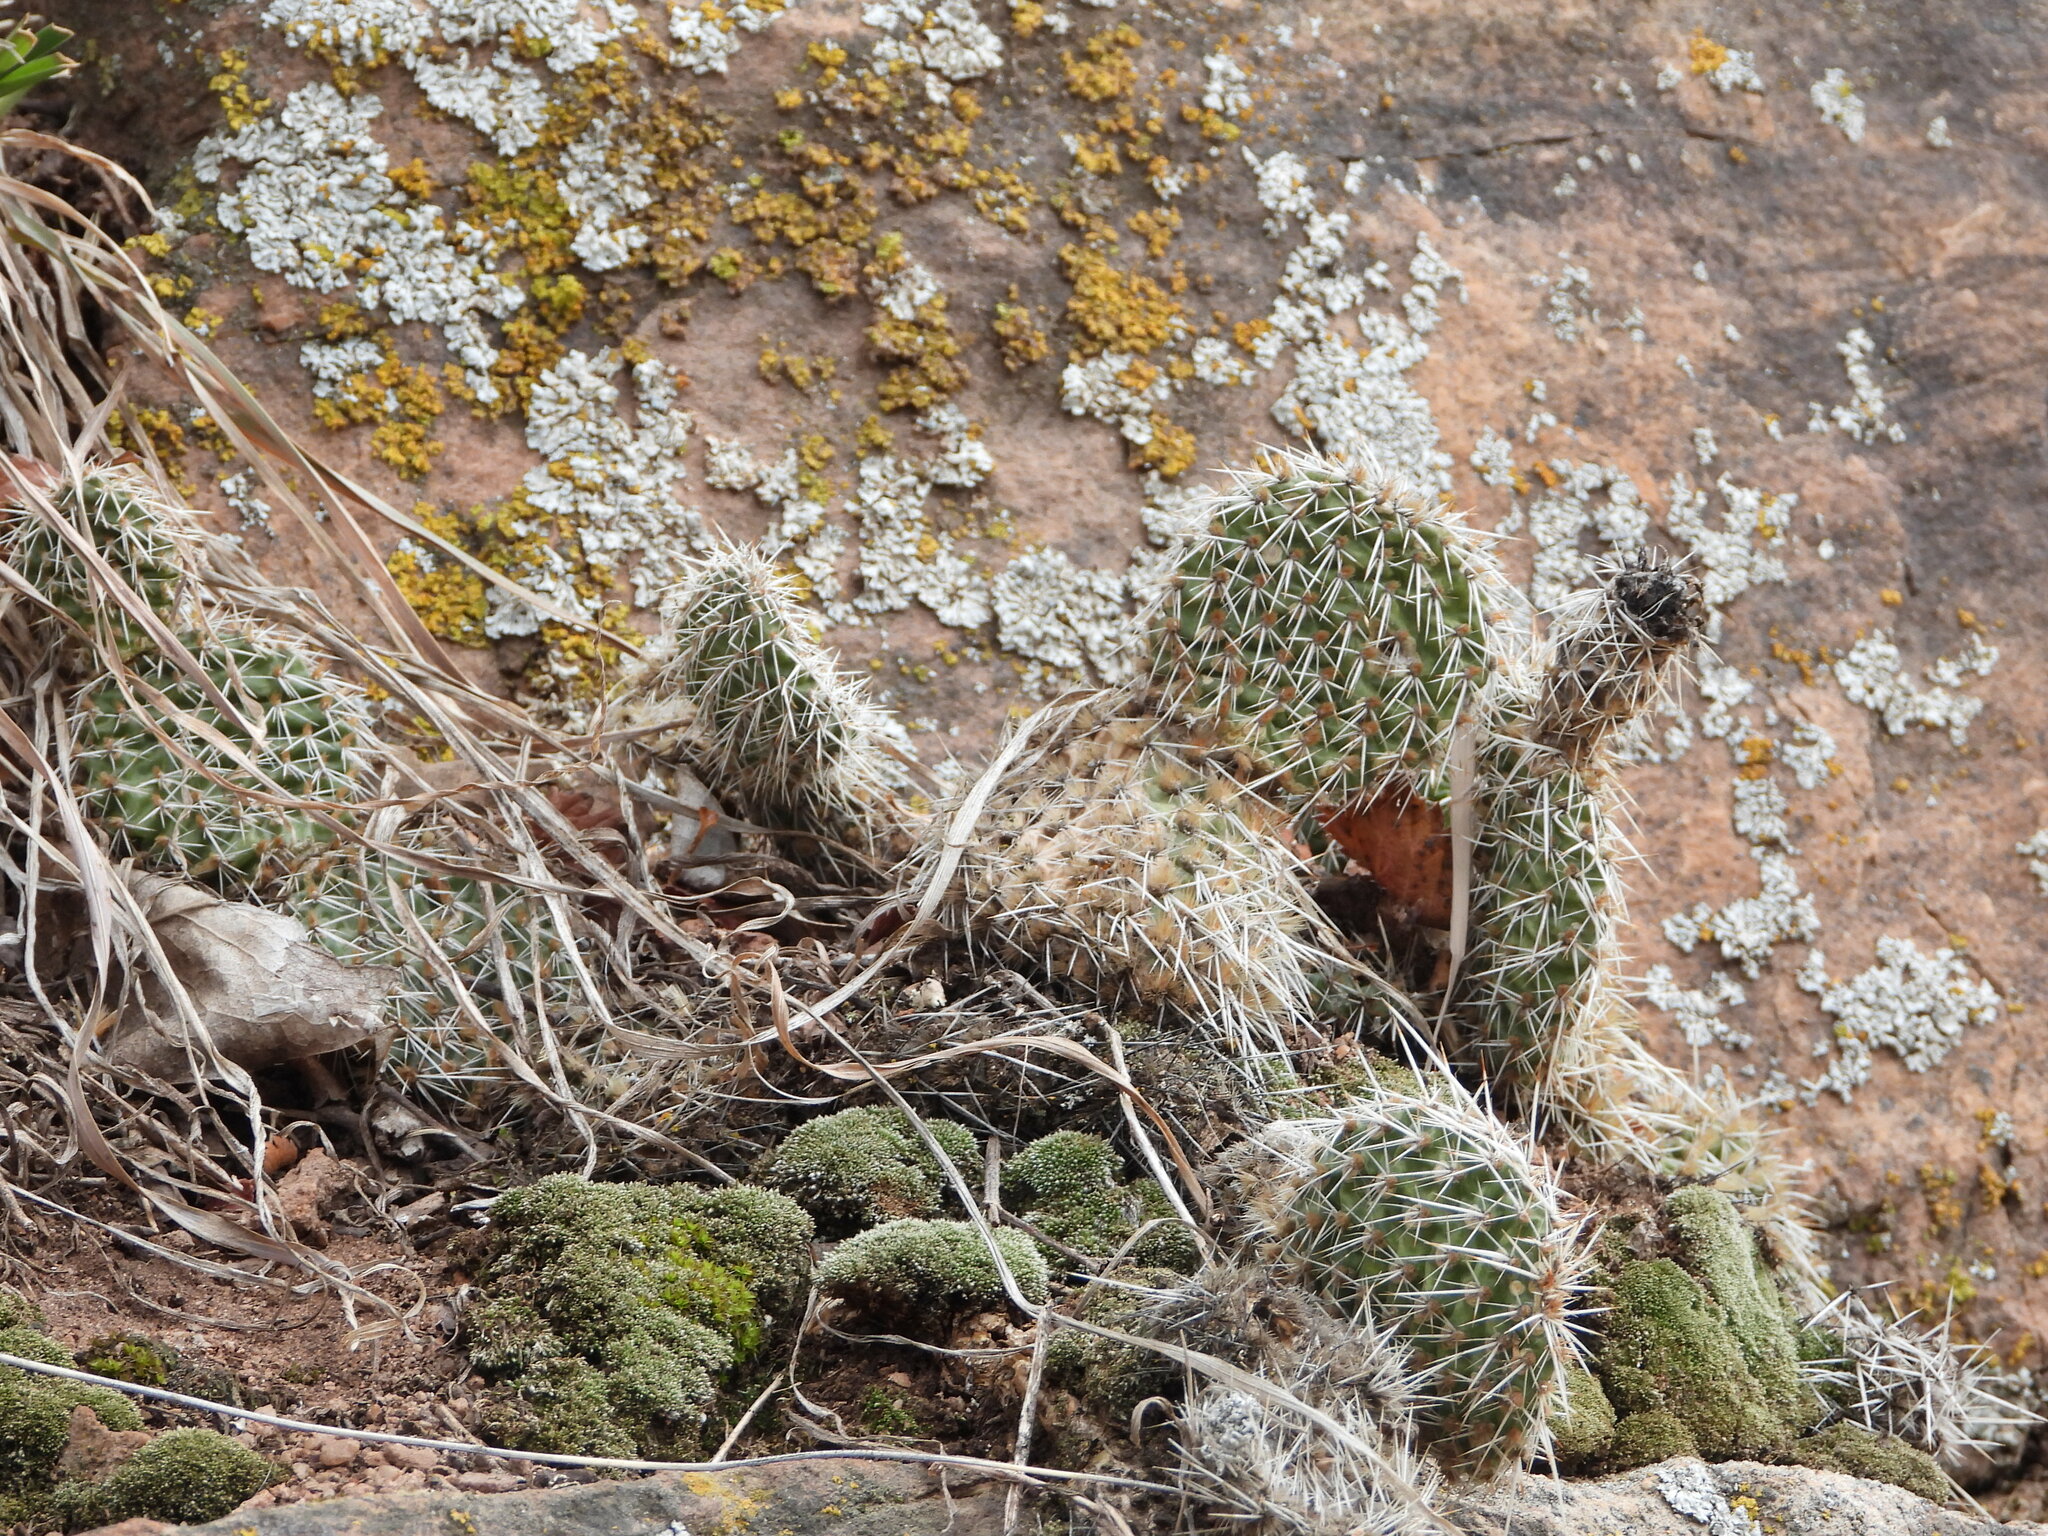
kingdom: Plantae
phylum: Tracheophyta
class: Magnoliopsida
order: Caryophyllales
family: Cactaceae
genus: Opuntia
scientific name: Opuntia polyacantha
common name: Plains prickly-pear
